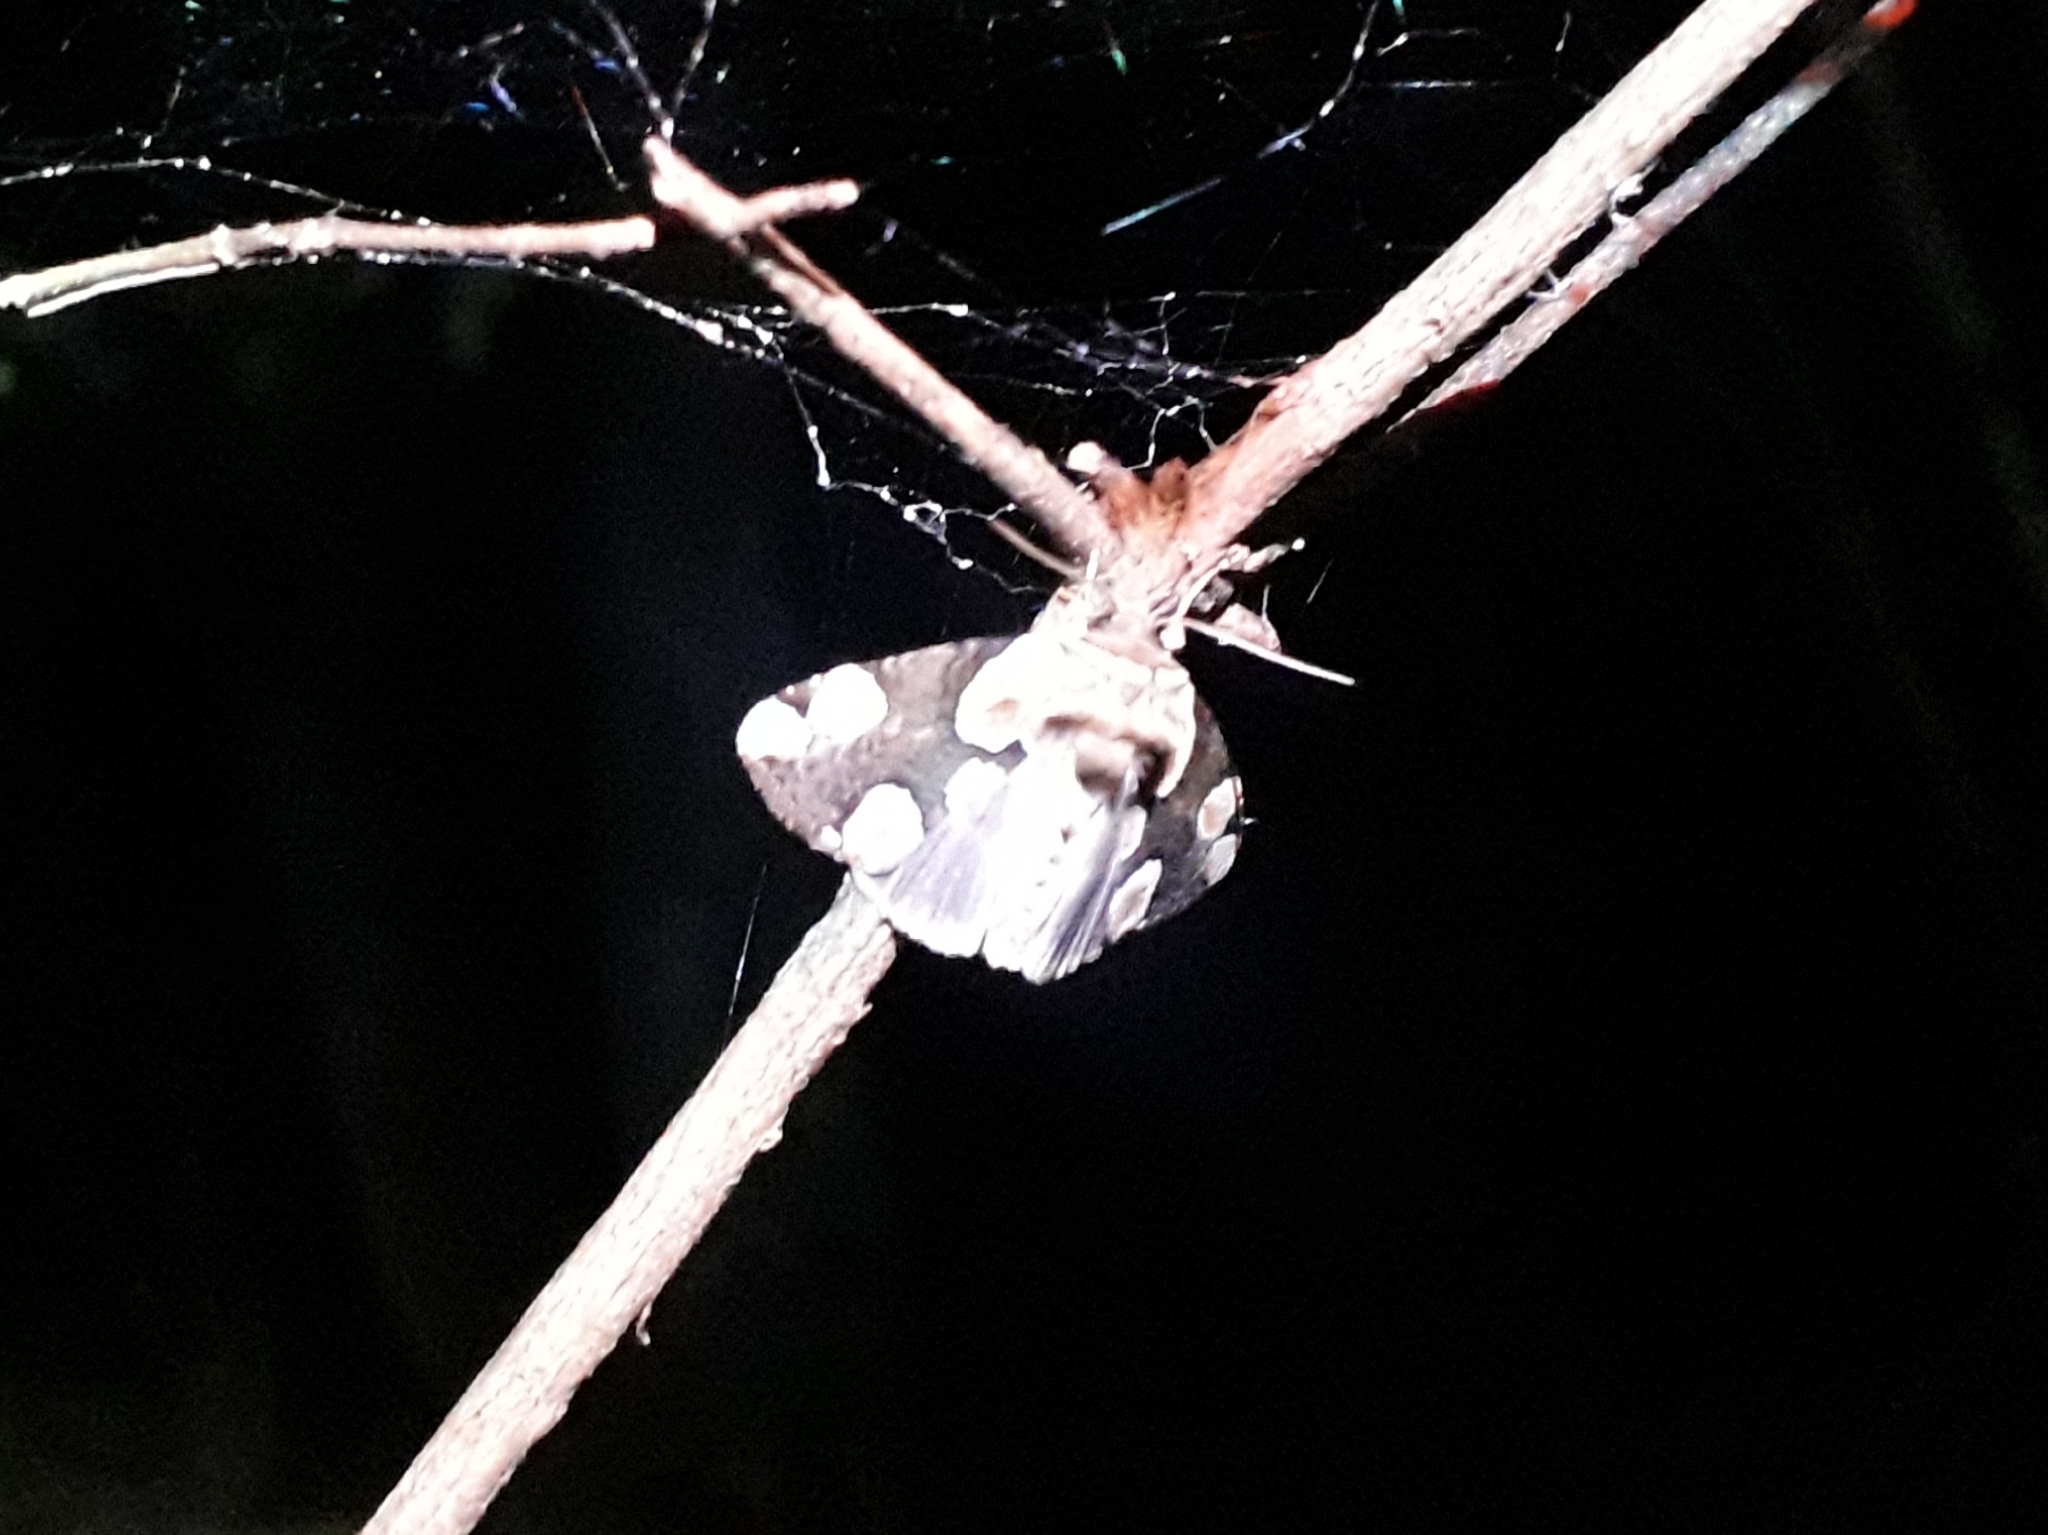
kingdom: Animalia
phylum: Arthropoda
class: Insecta
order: Lepidoptera
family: Drepanidae
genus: Thyatira
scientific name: Thyatira batis
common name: Peach blossom
